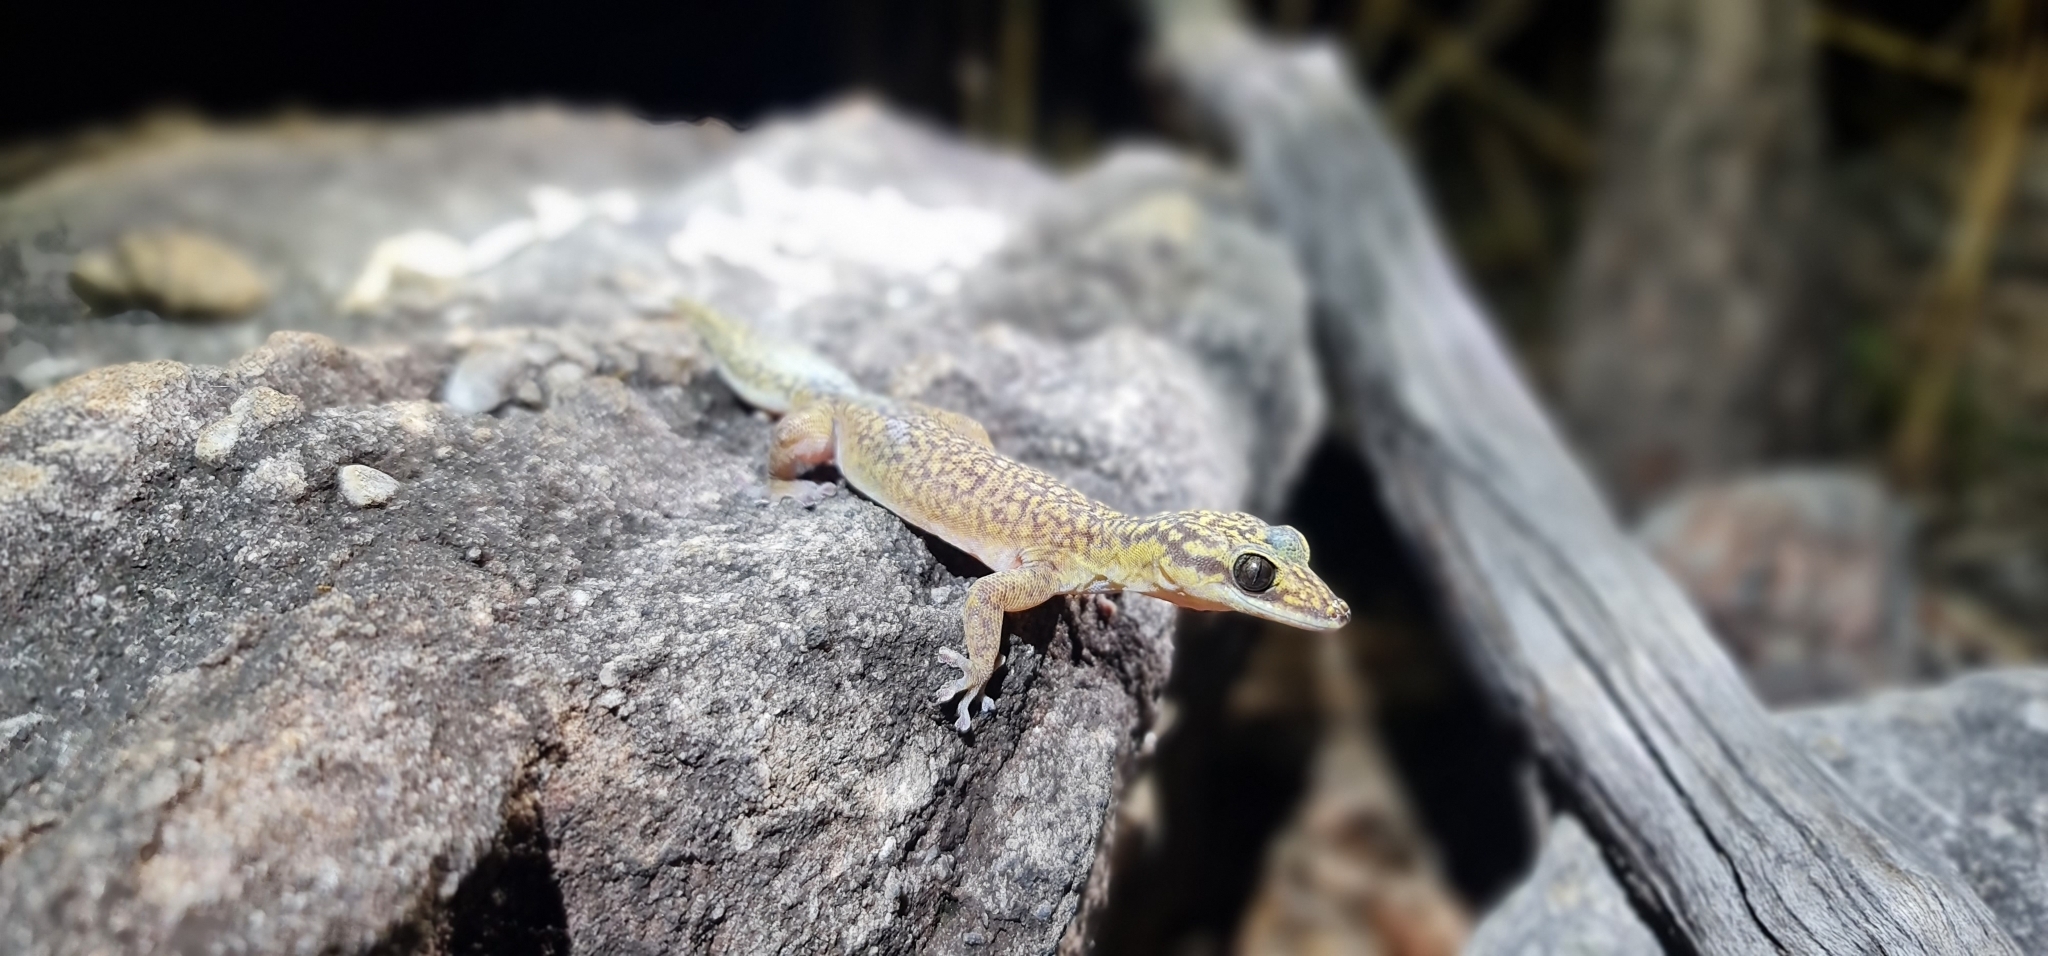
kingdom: Animalia
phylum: Chordata
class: Squamata
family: Diplodactylidae
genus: Oedura
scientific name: Oedura gemmata
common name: Dotted velvet gecko
